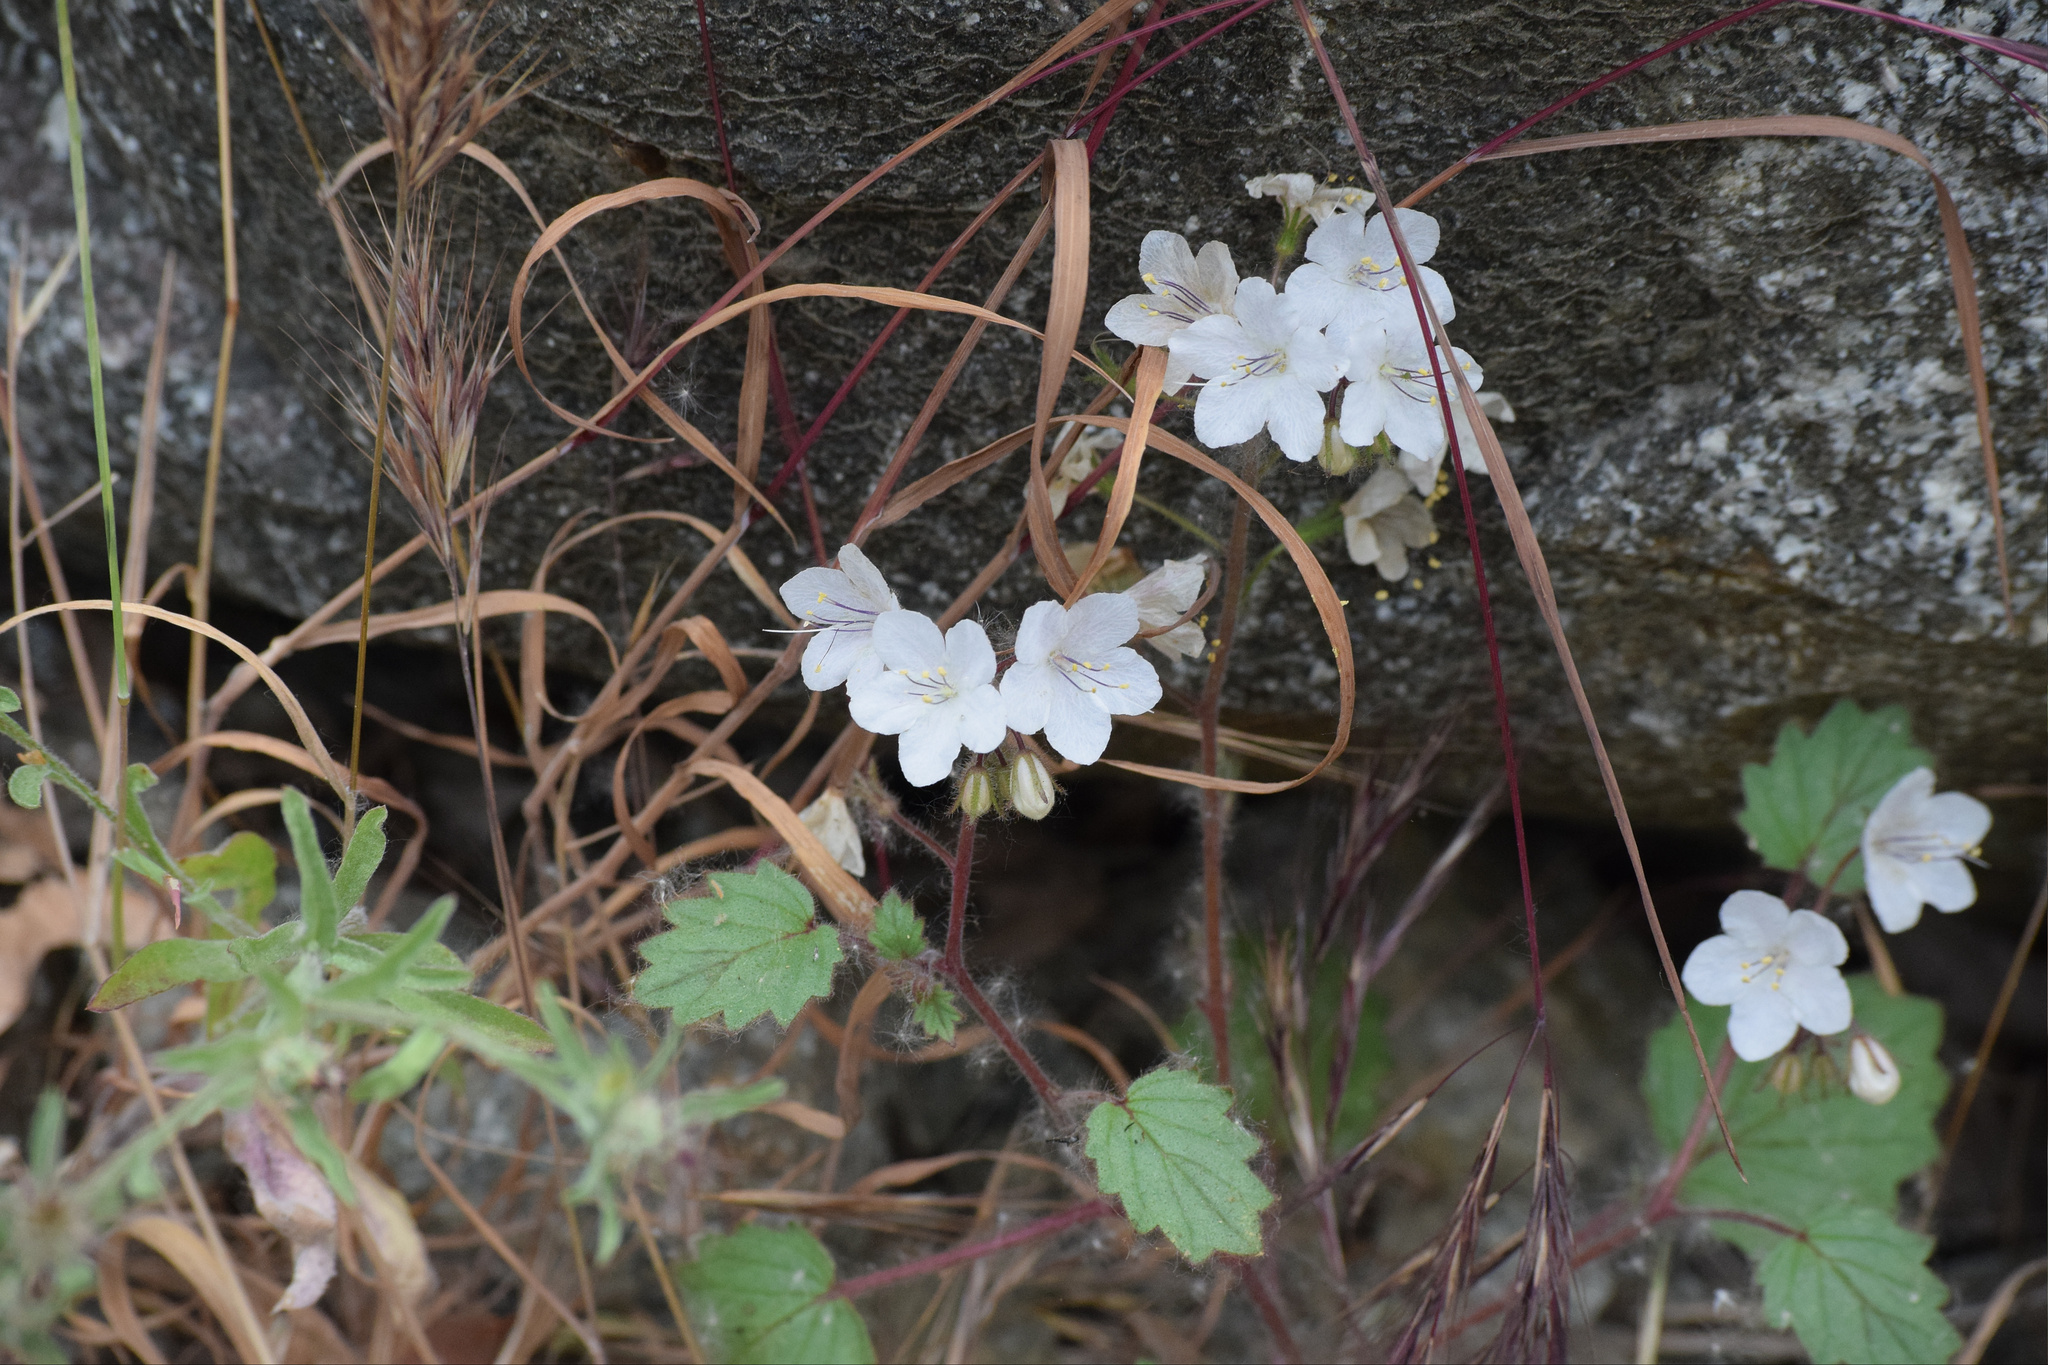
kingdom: Plantae
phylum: Tracheophyta
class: Magnoliopsida
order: Boraginales
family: Hydrophyllaceae
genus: Phacelia
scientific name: Phacelia longipes
